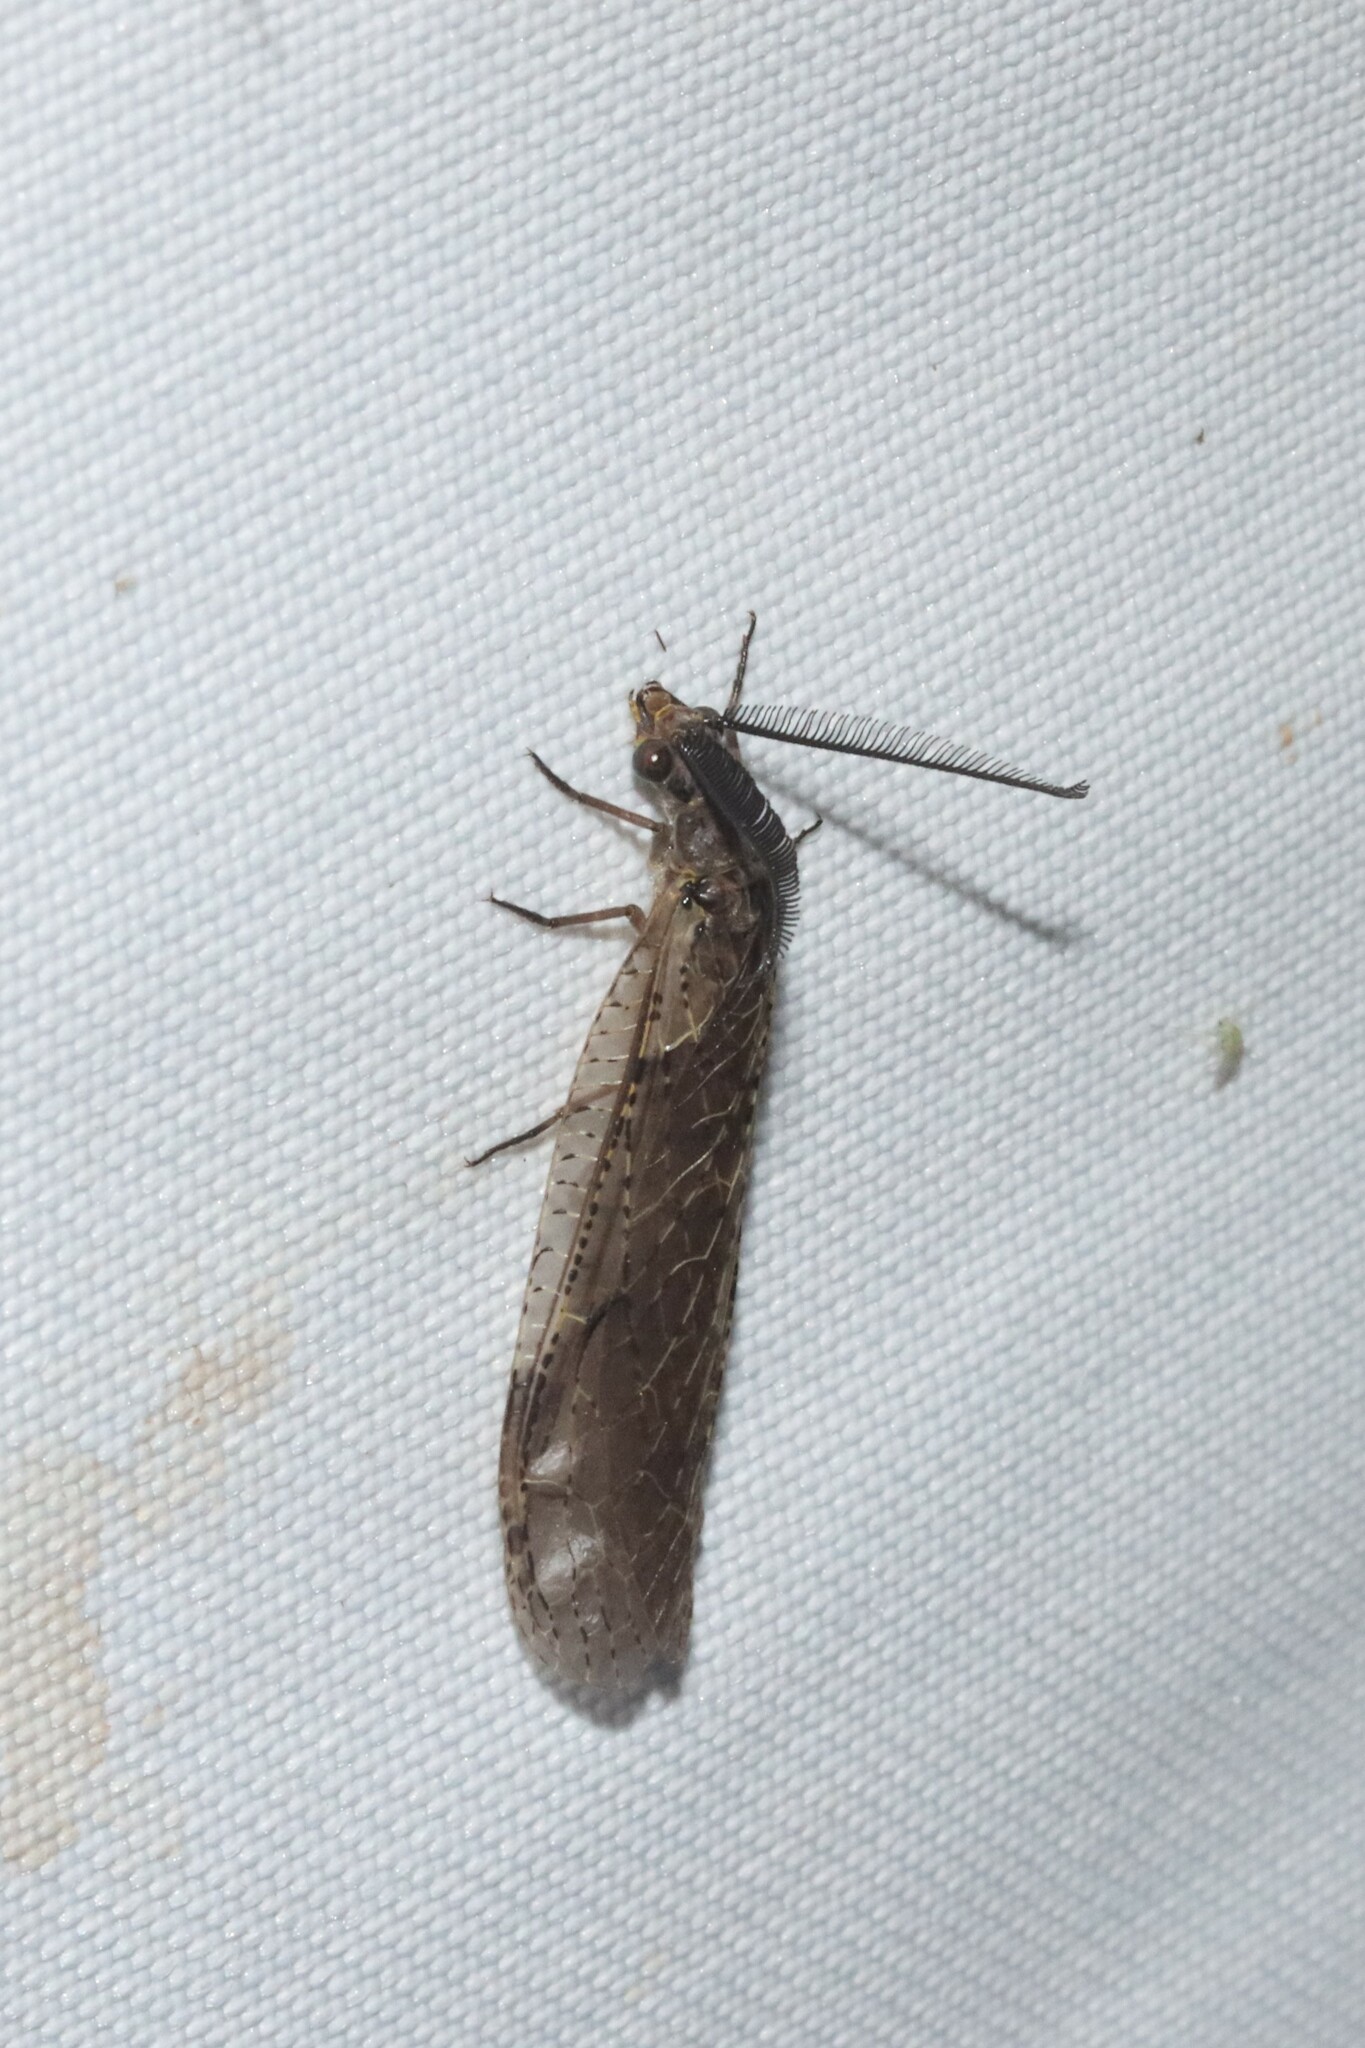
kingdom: Animalia
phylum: Arthropoda
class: Insecta
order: Megaloptera
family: Corydalidae
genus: Chauliodes
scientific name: Chauliodes rastricornis
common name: Spring fishfly
